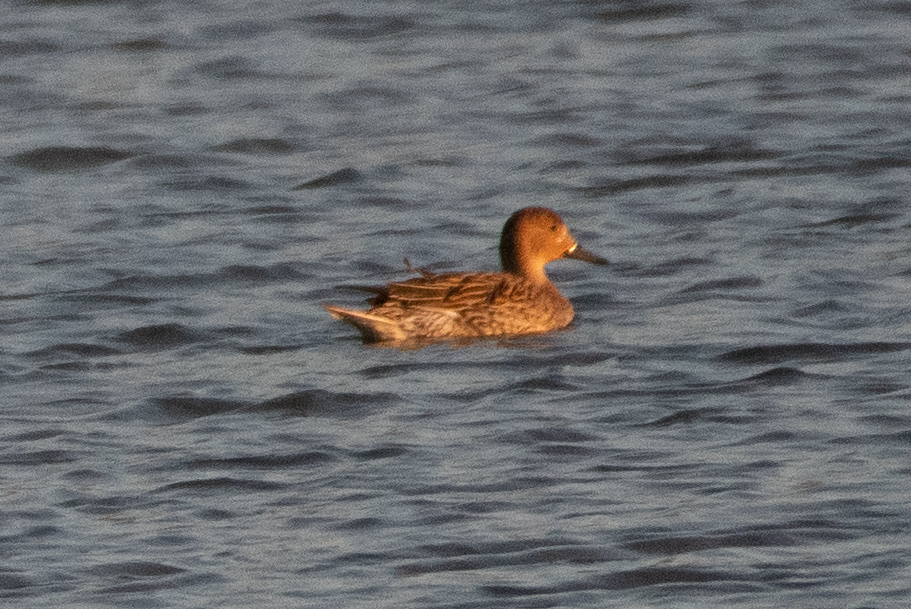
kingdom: Animalia
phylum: Chordata
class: Aves
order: Anseriformes
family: Anatidae
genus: Anas
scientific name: Anas acuta
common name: Northern pintail
